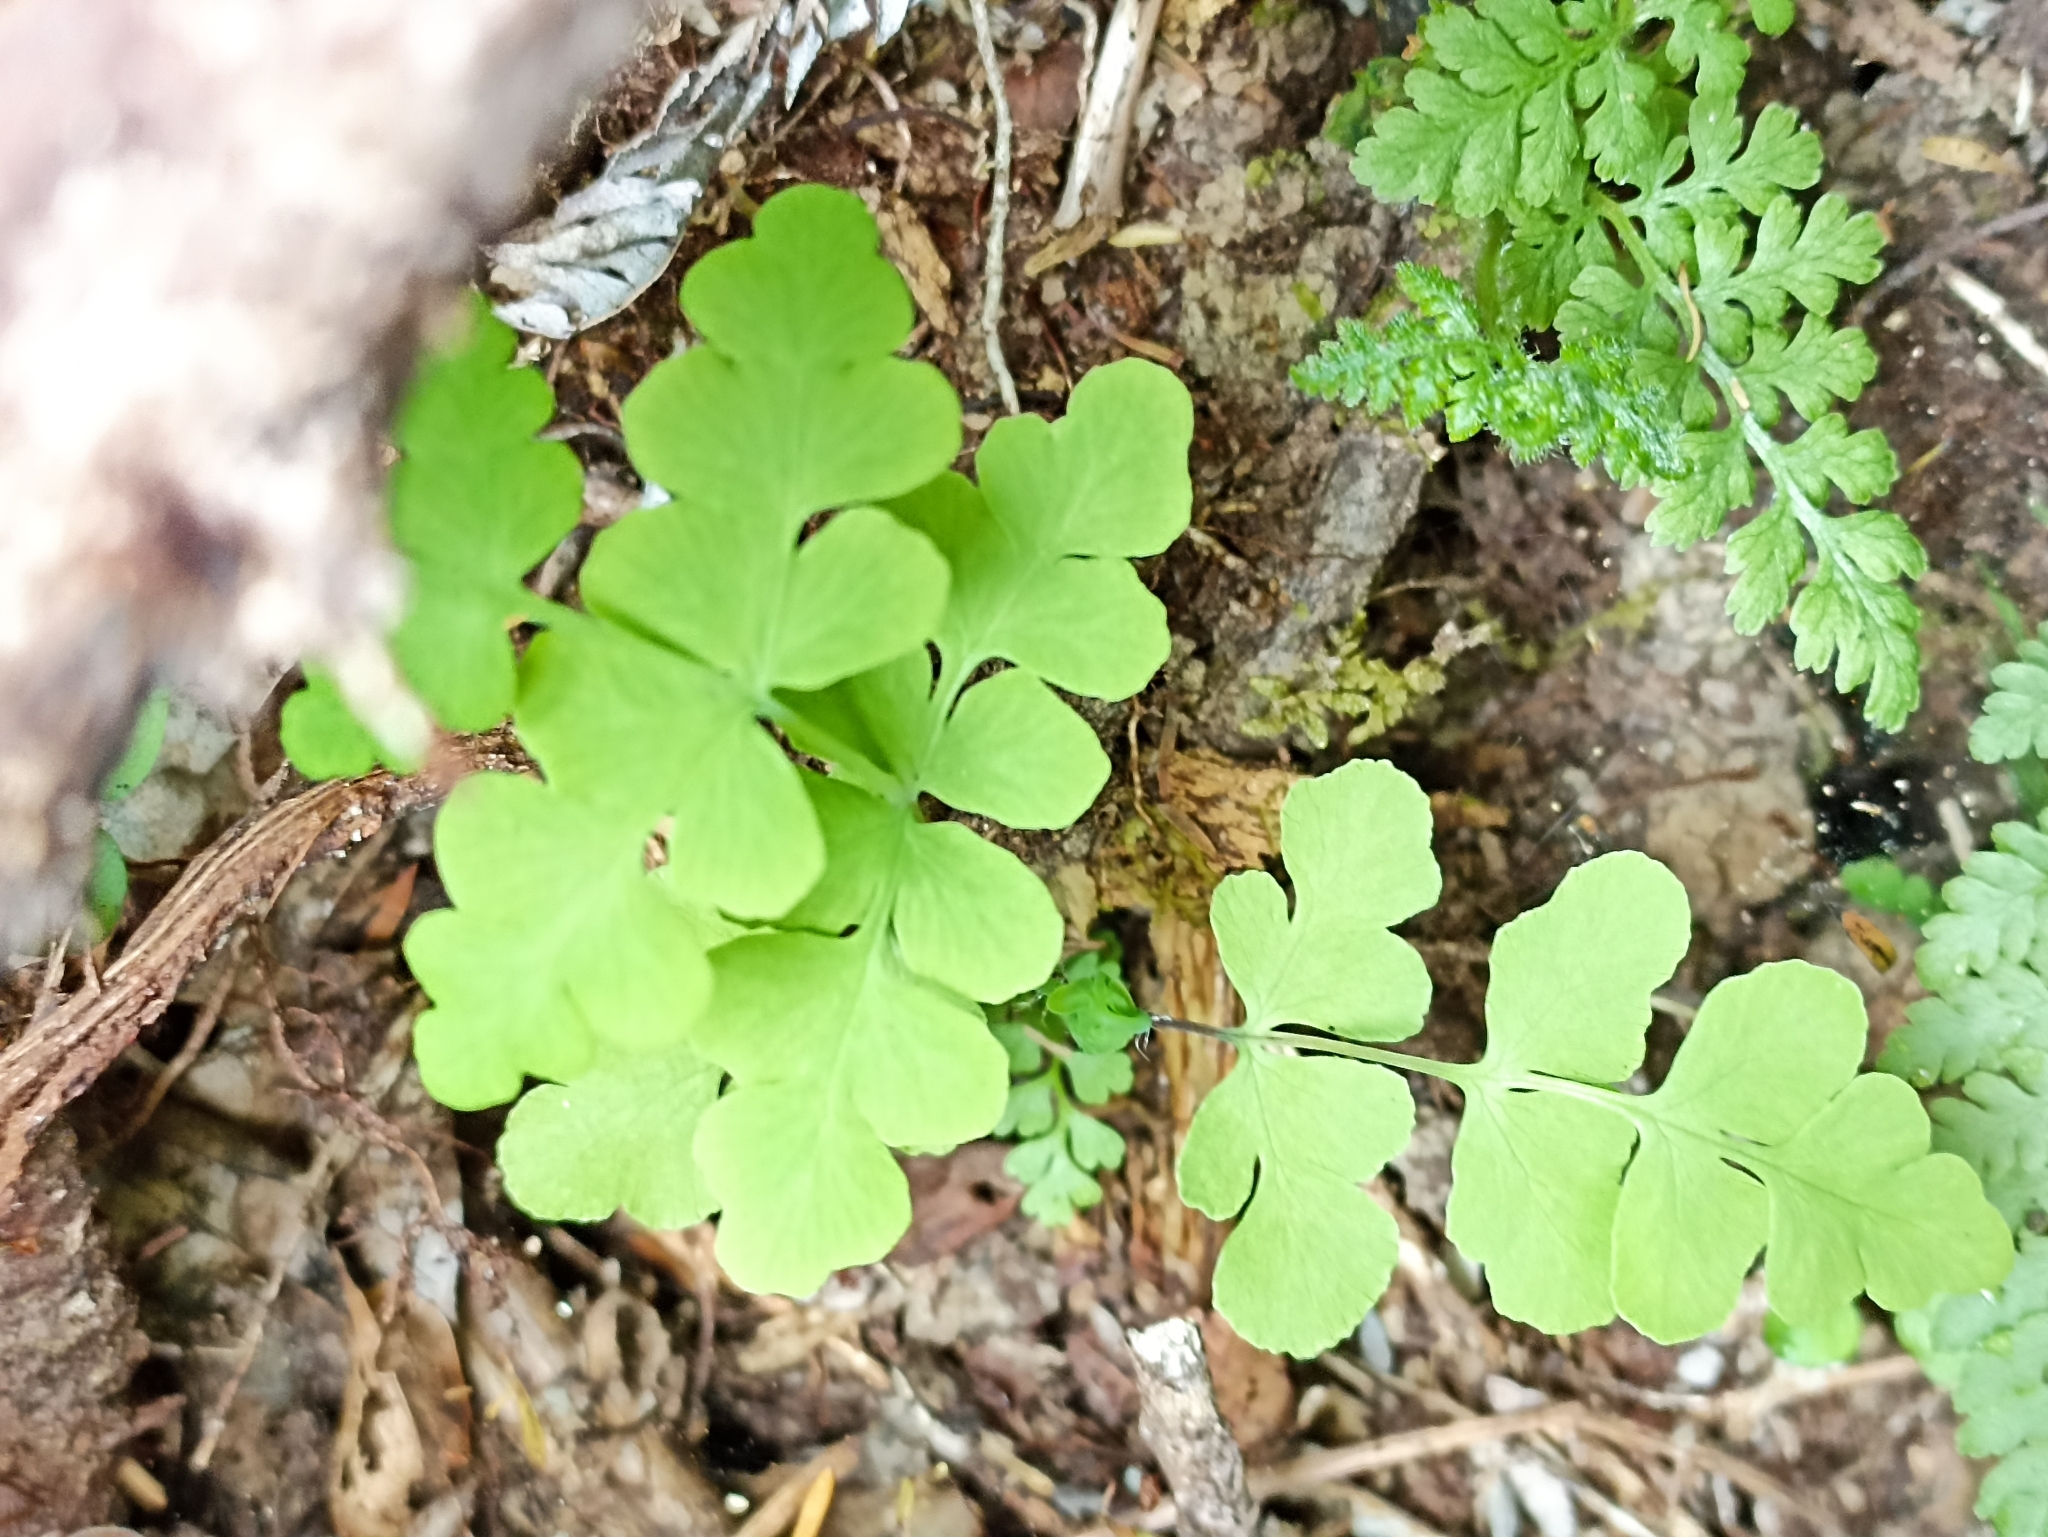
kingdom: Plantae
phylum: Tracheophyta
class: Polypodiopsida
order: Polypodiales
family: Dennstaedtiaceae
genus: Histiopteris
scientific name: Histiopteris incisa
